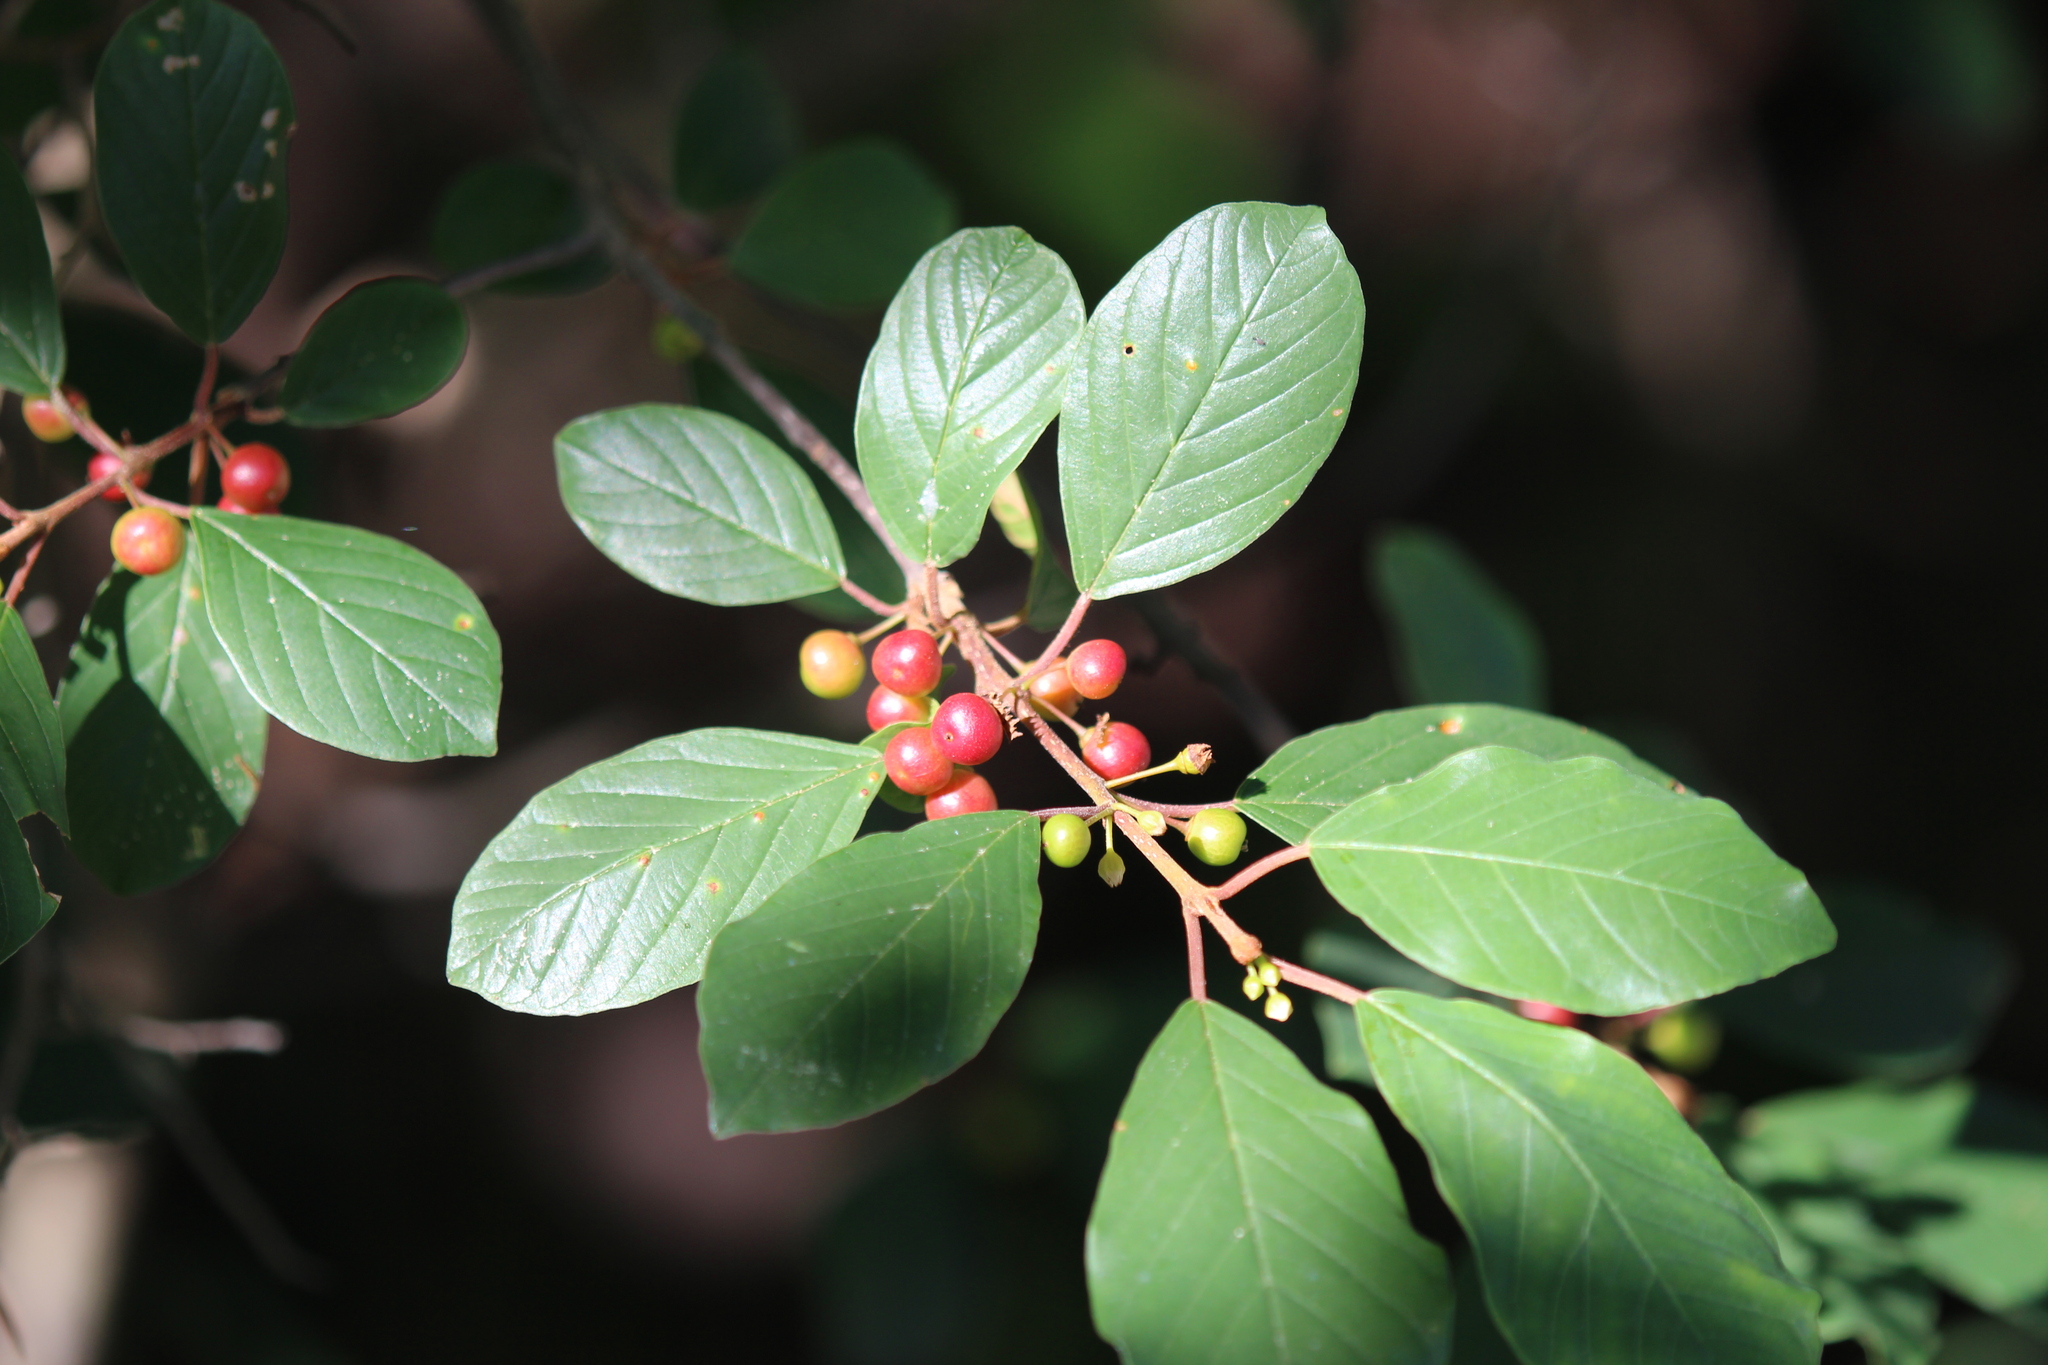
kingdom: Plantae
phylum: Tracheophyta
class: Magnoliopsida
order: Rosales
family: Rhamnaceae
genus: Frangula
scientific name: Frangula alnus
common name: Alder buckthorn
